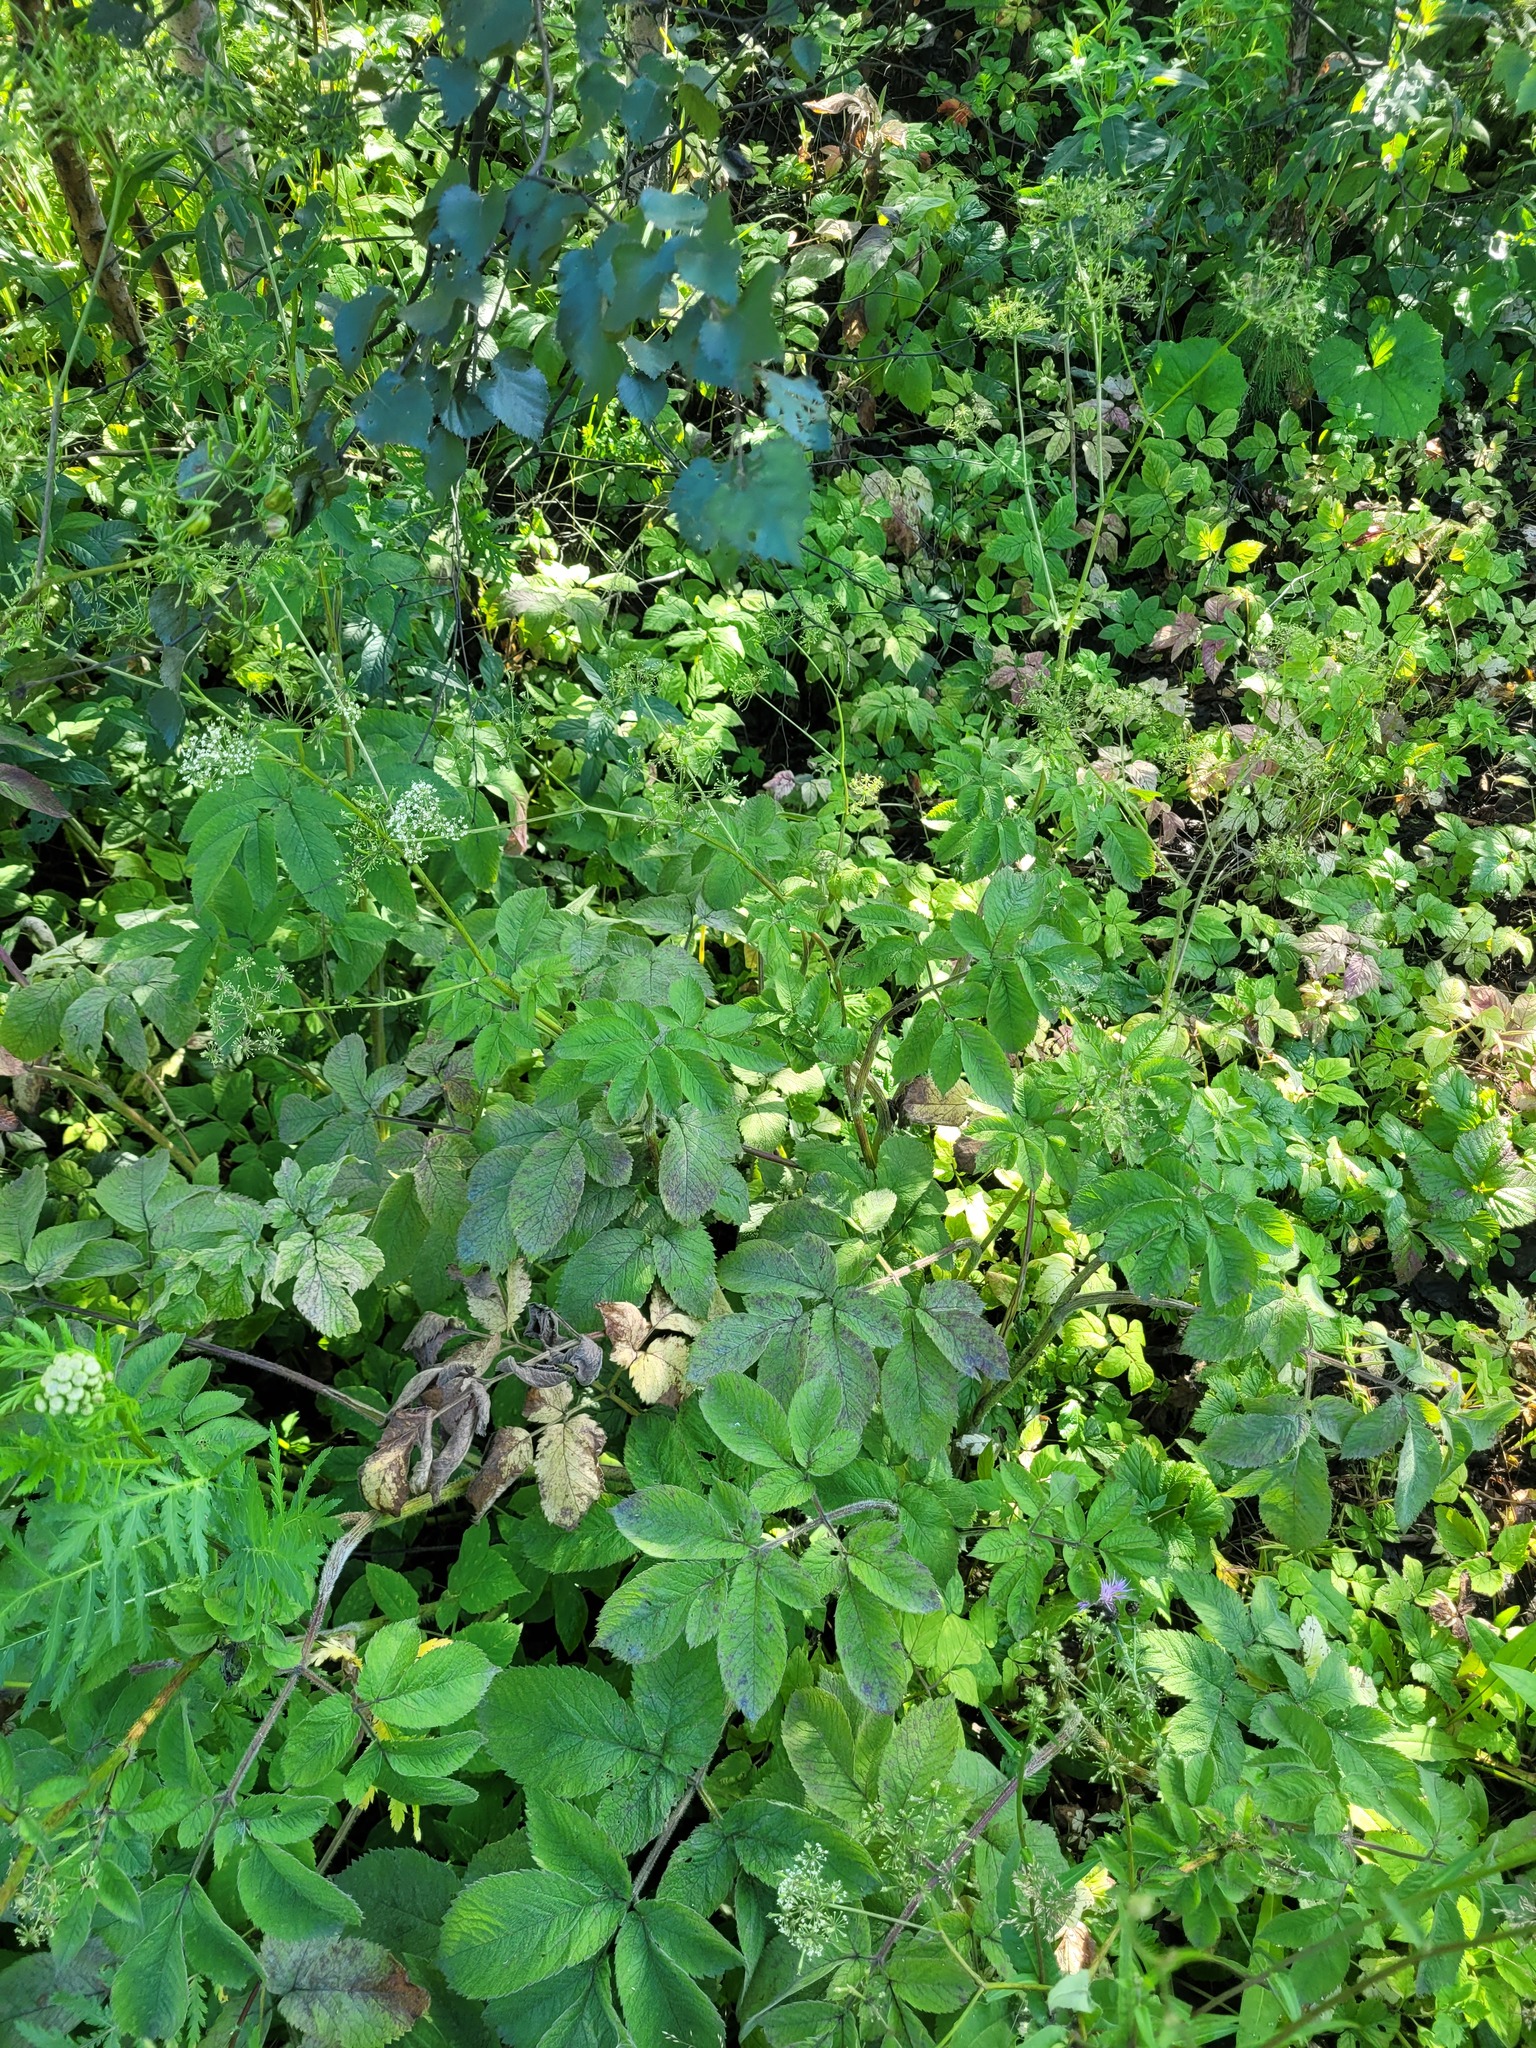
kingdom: Plantae
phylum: Tracheophyta
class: Magnoliopsida
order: Apiales
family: Apiaceae
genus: Chaerophyllum
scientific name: Chaerophyllum aromaticum
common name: Broadleaf chervil
